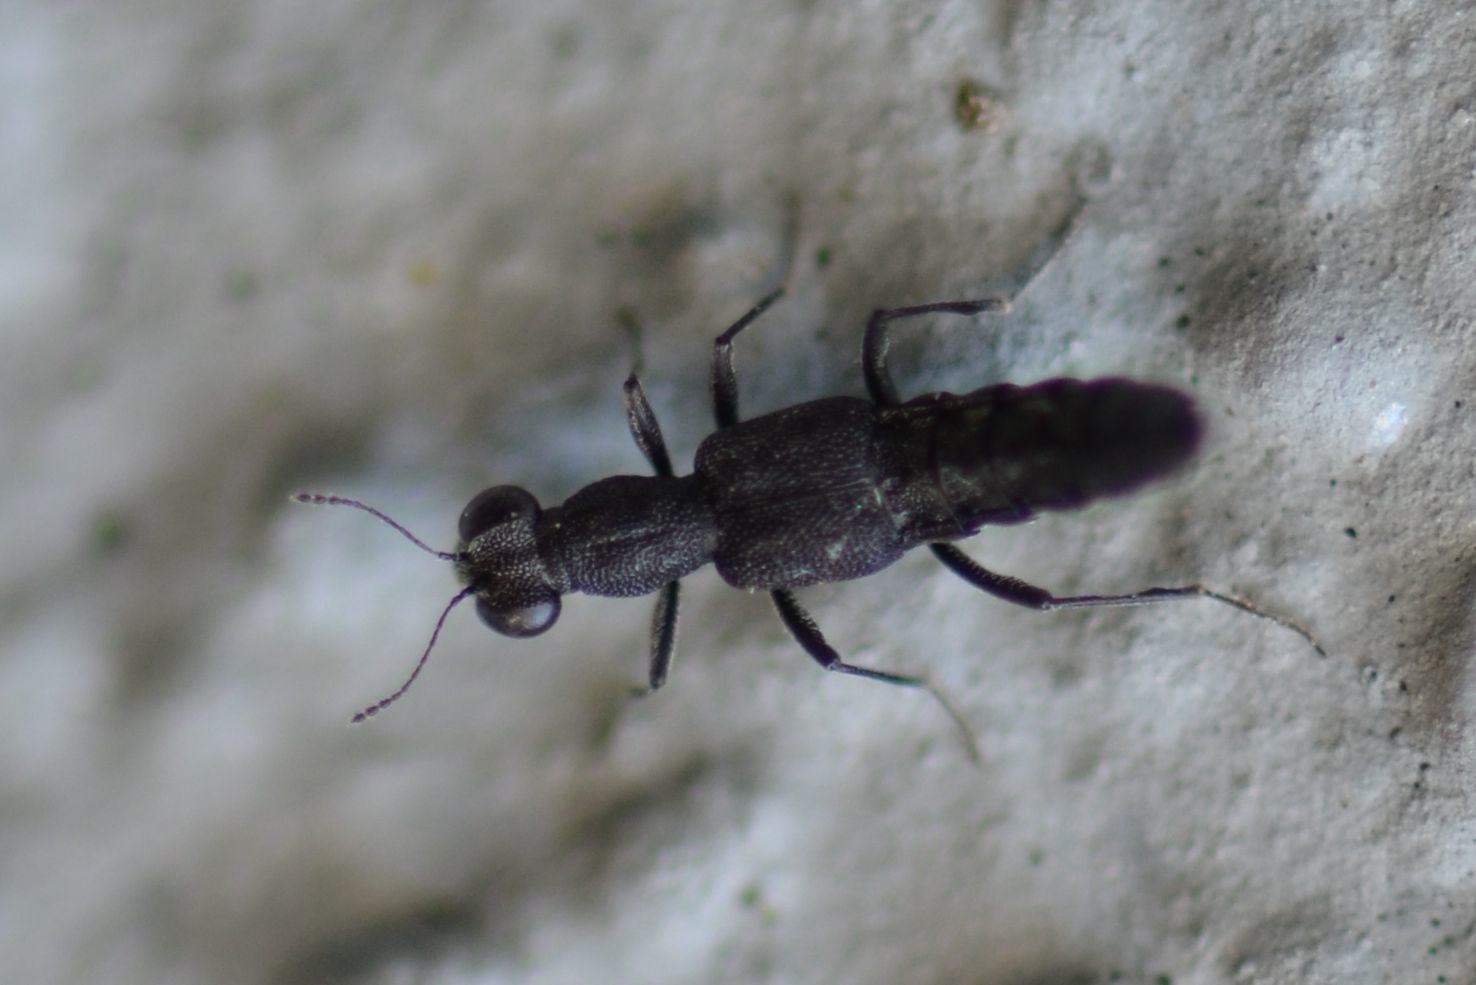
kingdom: Animalia
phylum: Arthropoda
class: Insecta
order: Coleoptera
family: Staphylinidae
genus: Stenus
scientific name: Stenus ater
